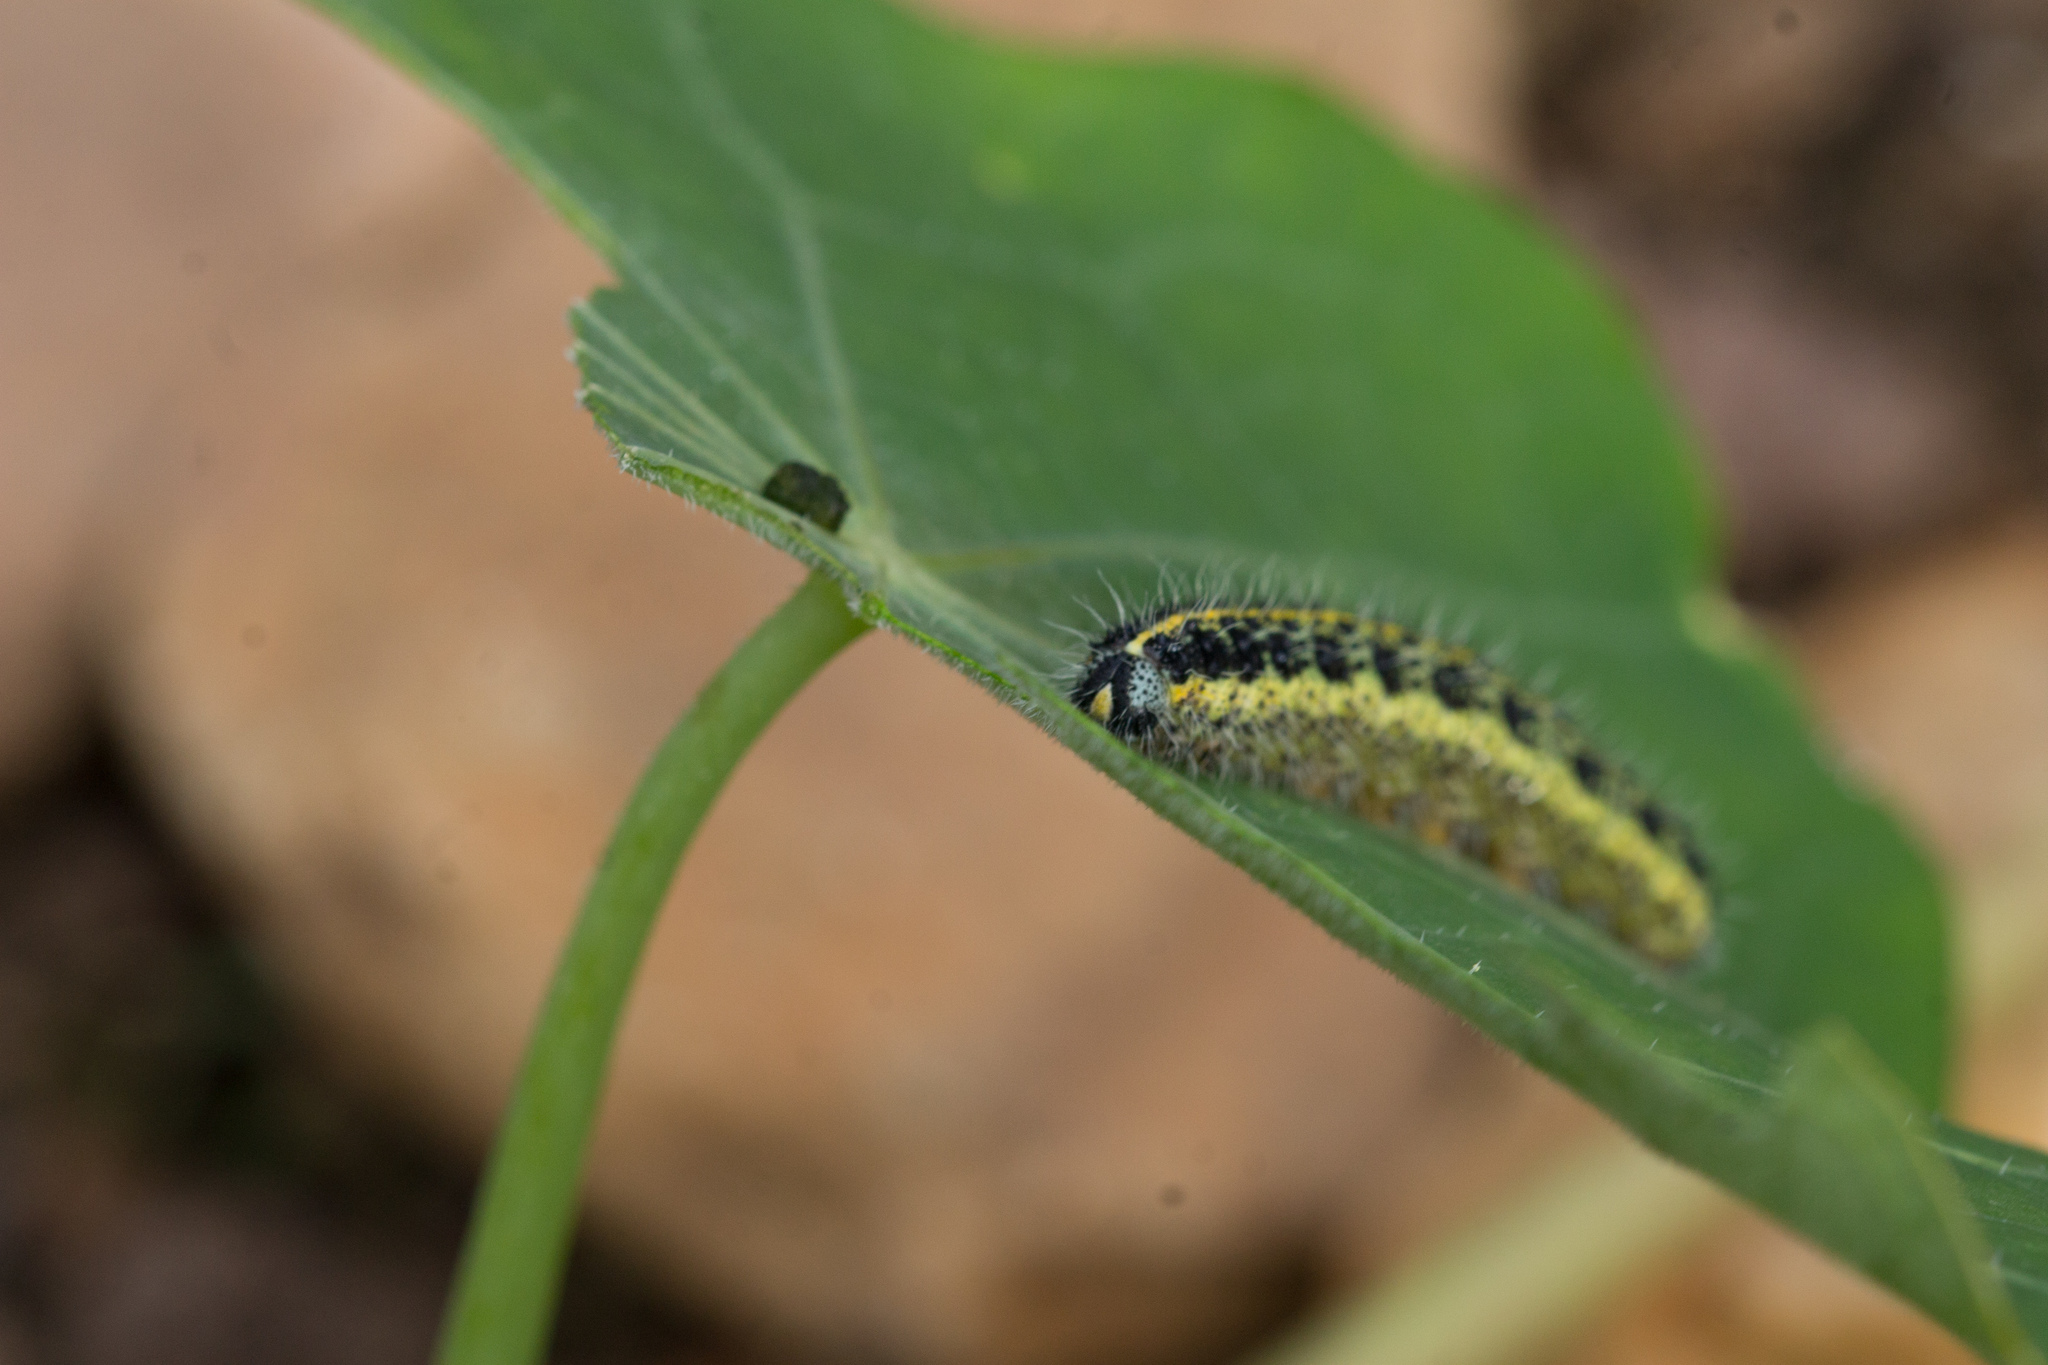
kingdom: Animalia
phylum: Arthropoda
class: Insecta
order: Lepidoptera
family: Pieridae
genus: Pieris
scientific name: Pieris brassicae
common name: Large white
